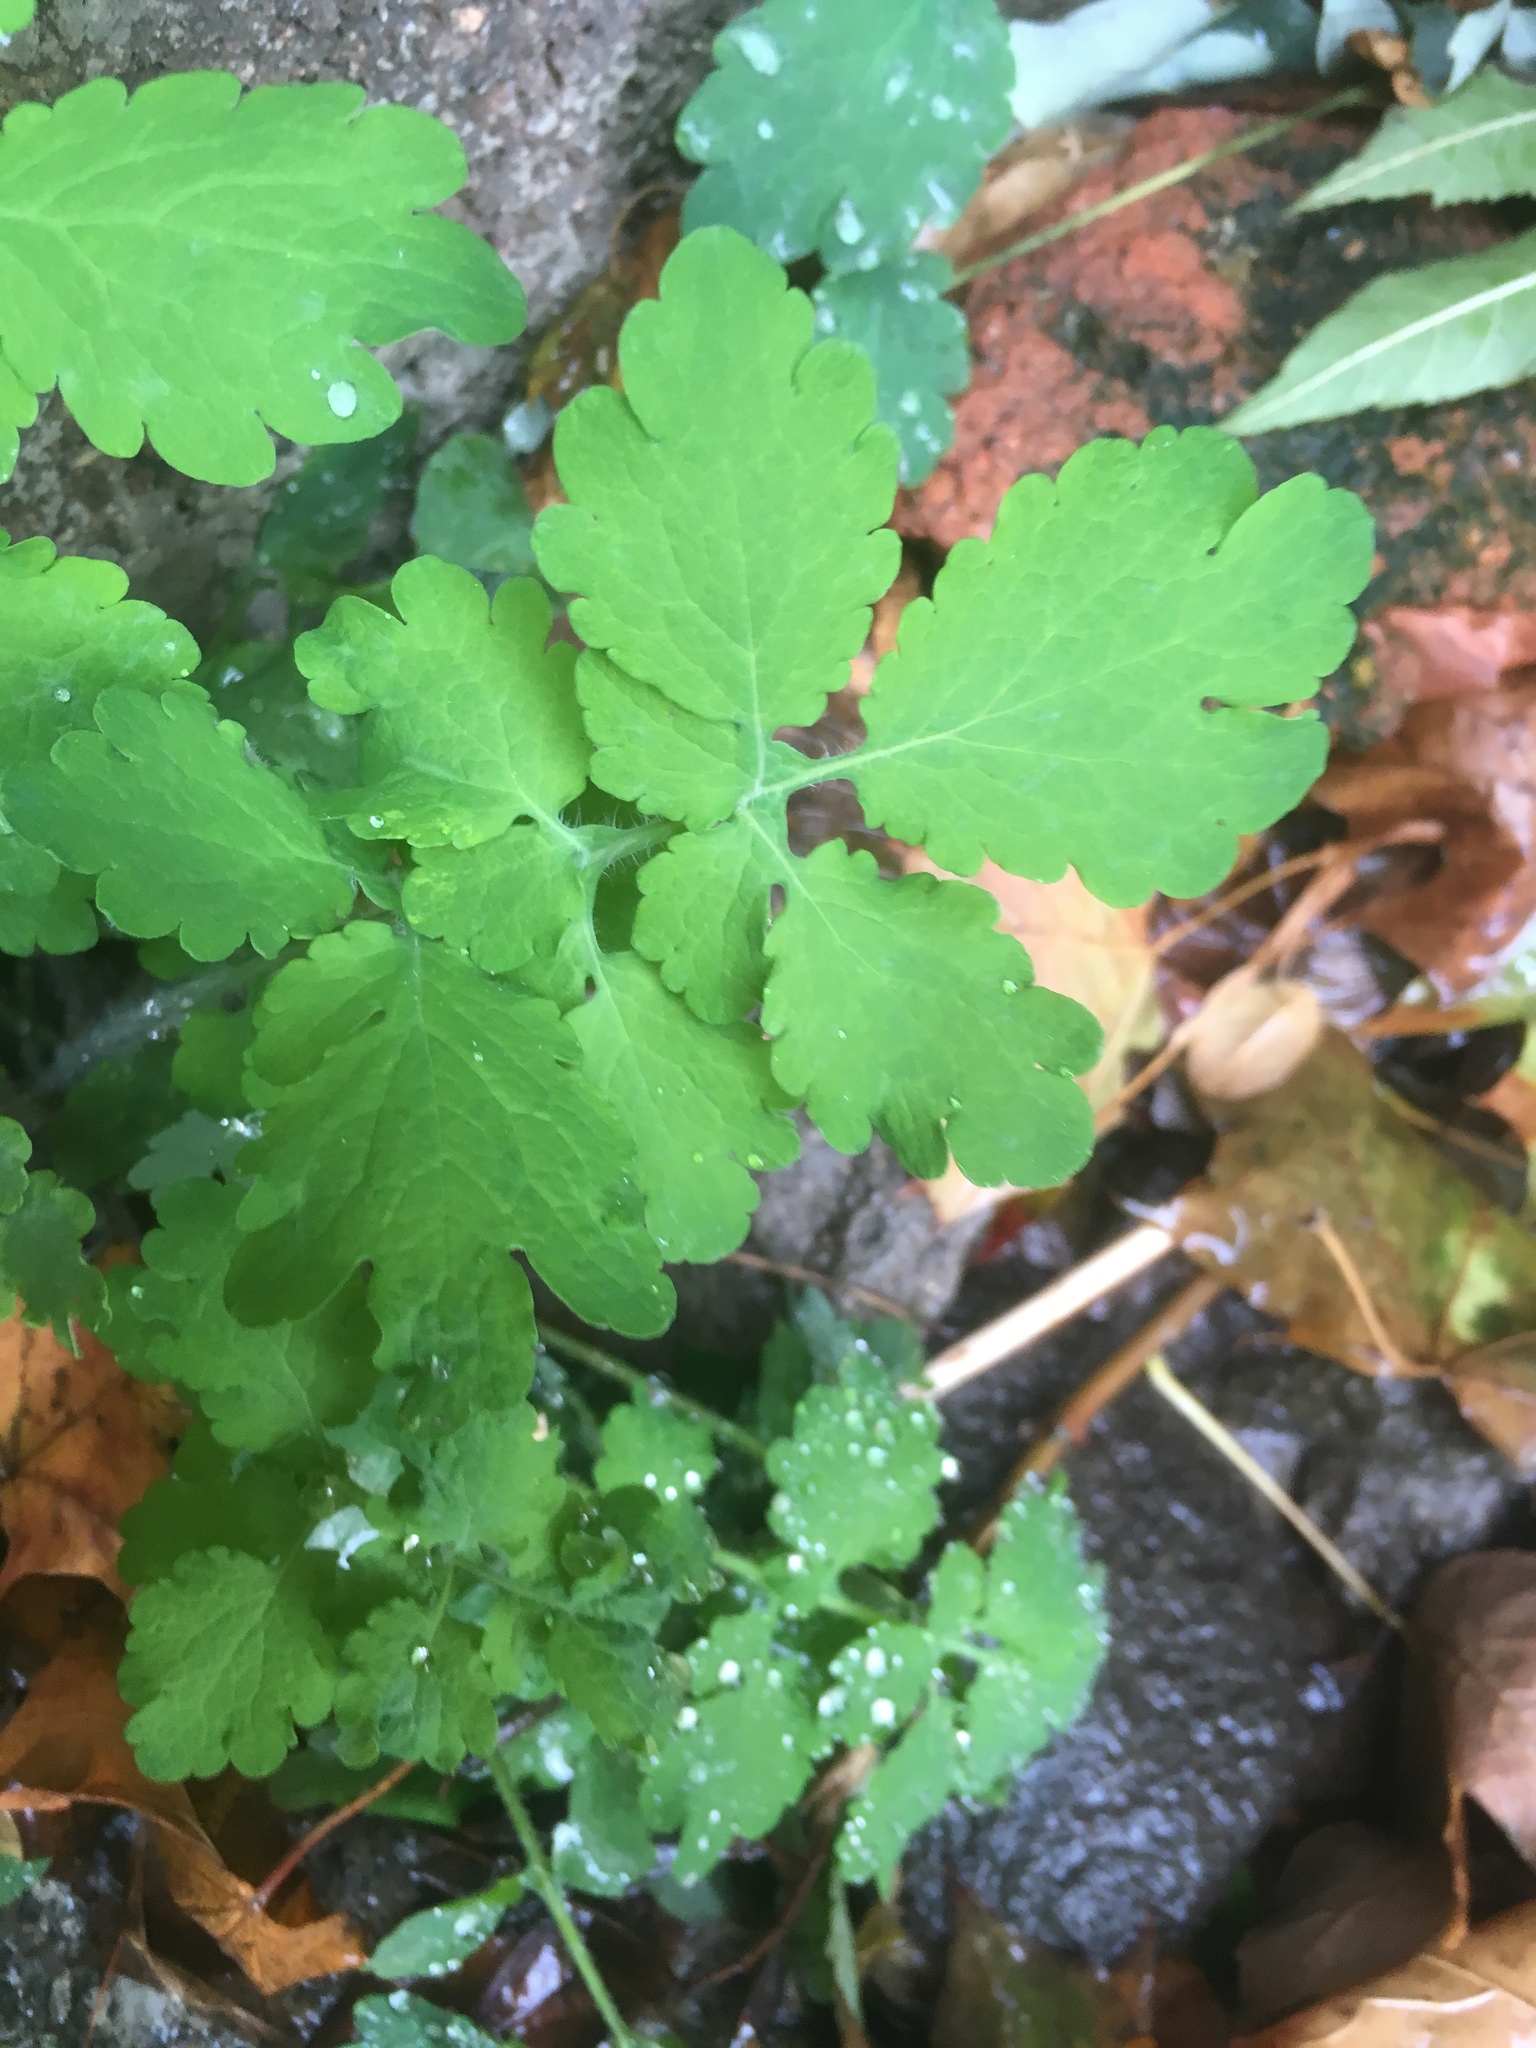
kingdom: Plantae
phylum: Tracheophyta
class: Magnoliopsida
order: Ranunculales
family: Papaveraceae
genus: Chelidonium
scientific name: Chelidonium majus
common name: Greater celandine
